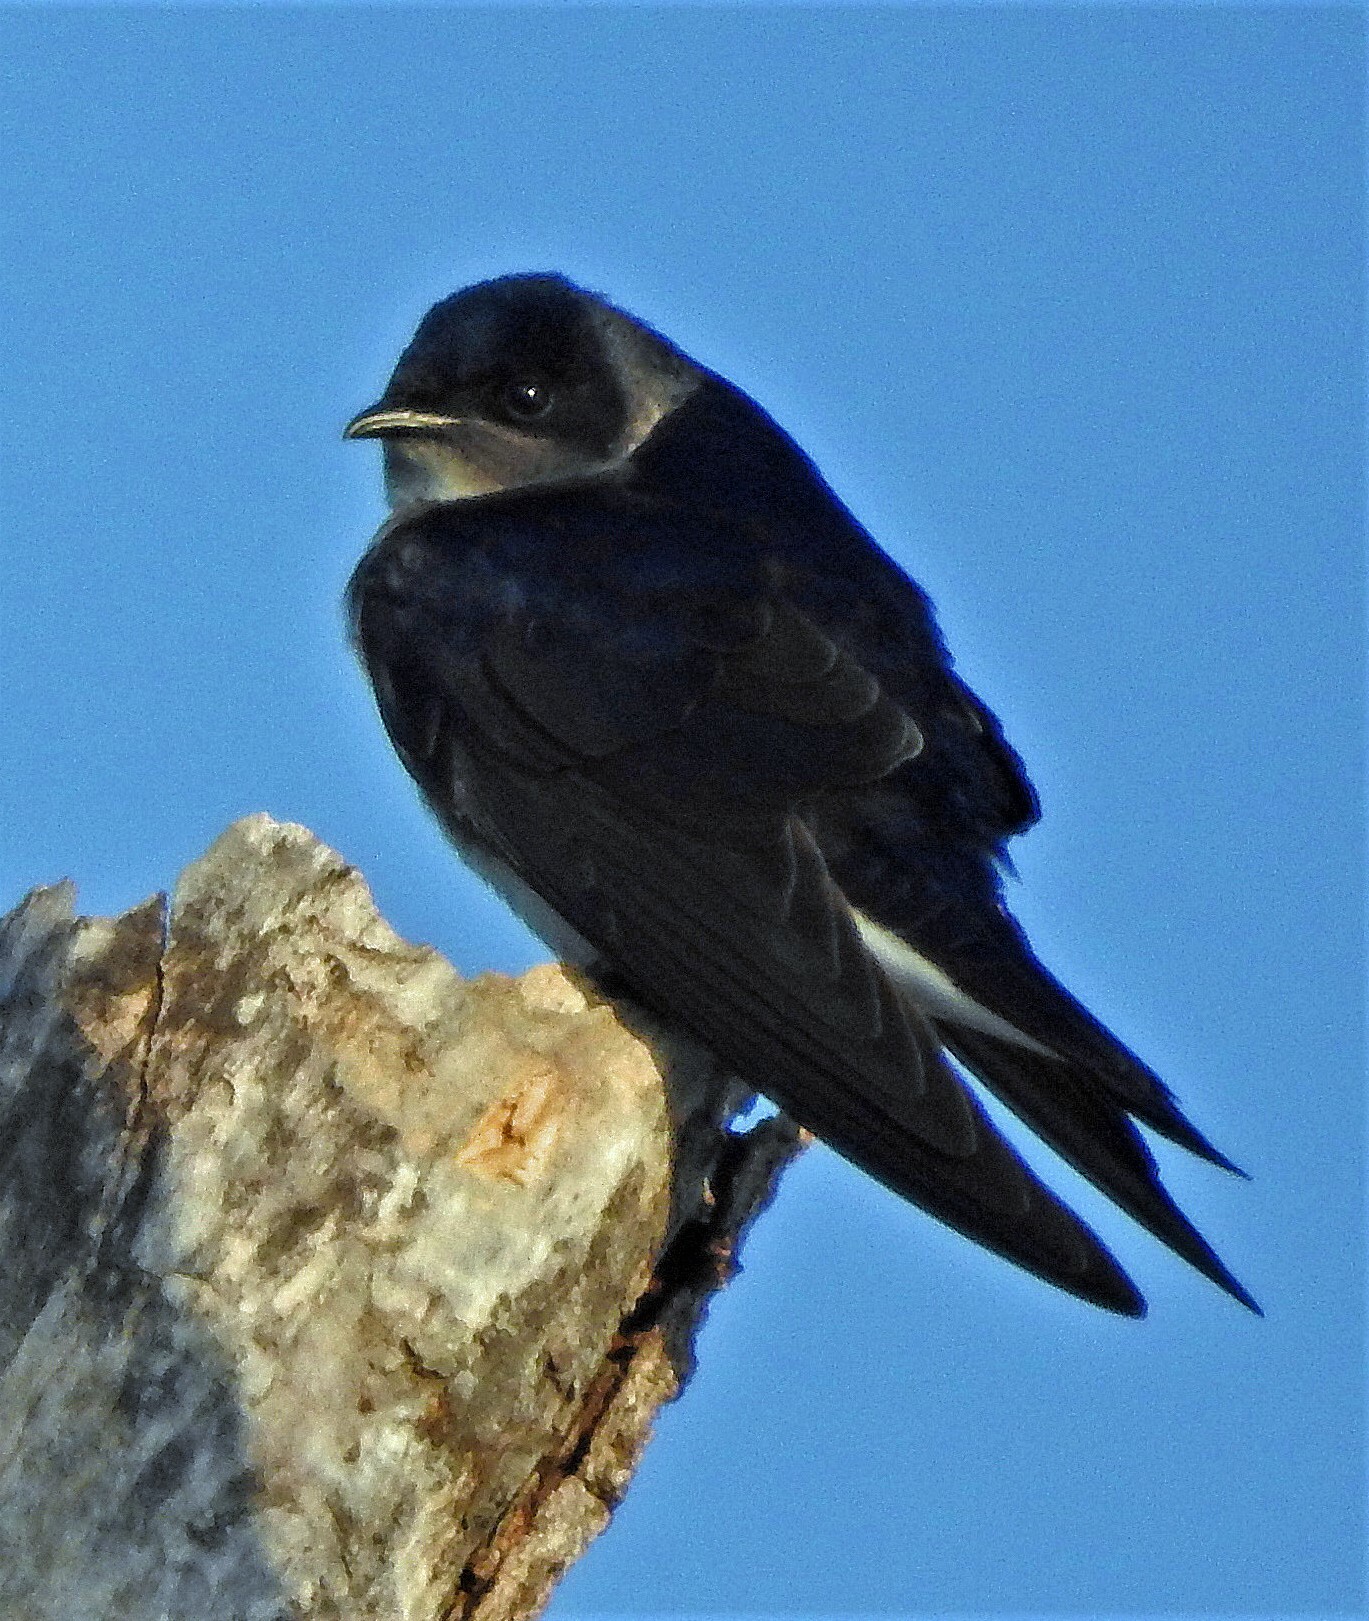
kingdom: Animalia
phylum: Chordata
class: Aves
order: Passeriformes
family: Hirundinidae
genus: Progne
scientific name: Progne chalybea
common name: Grey-breasted martin
